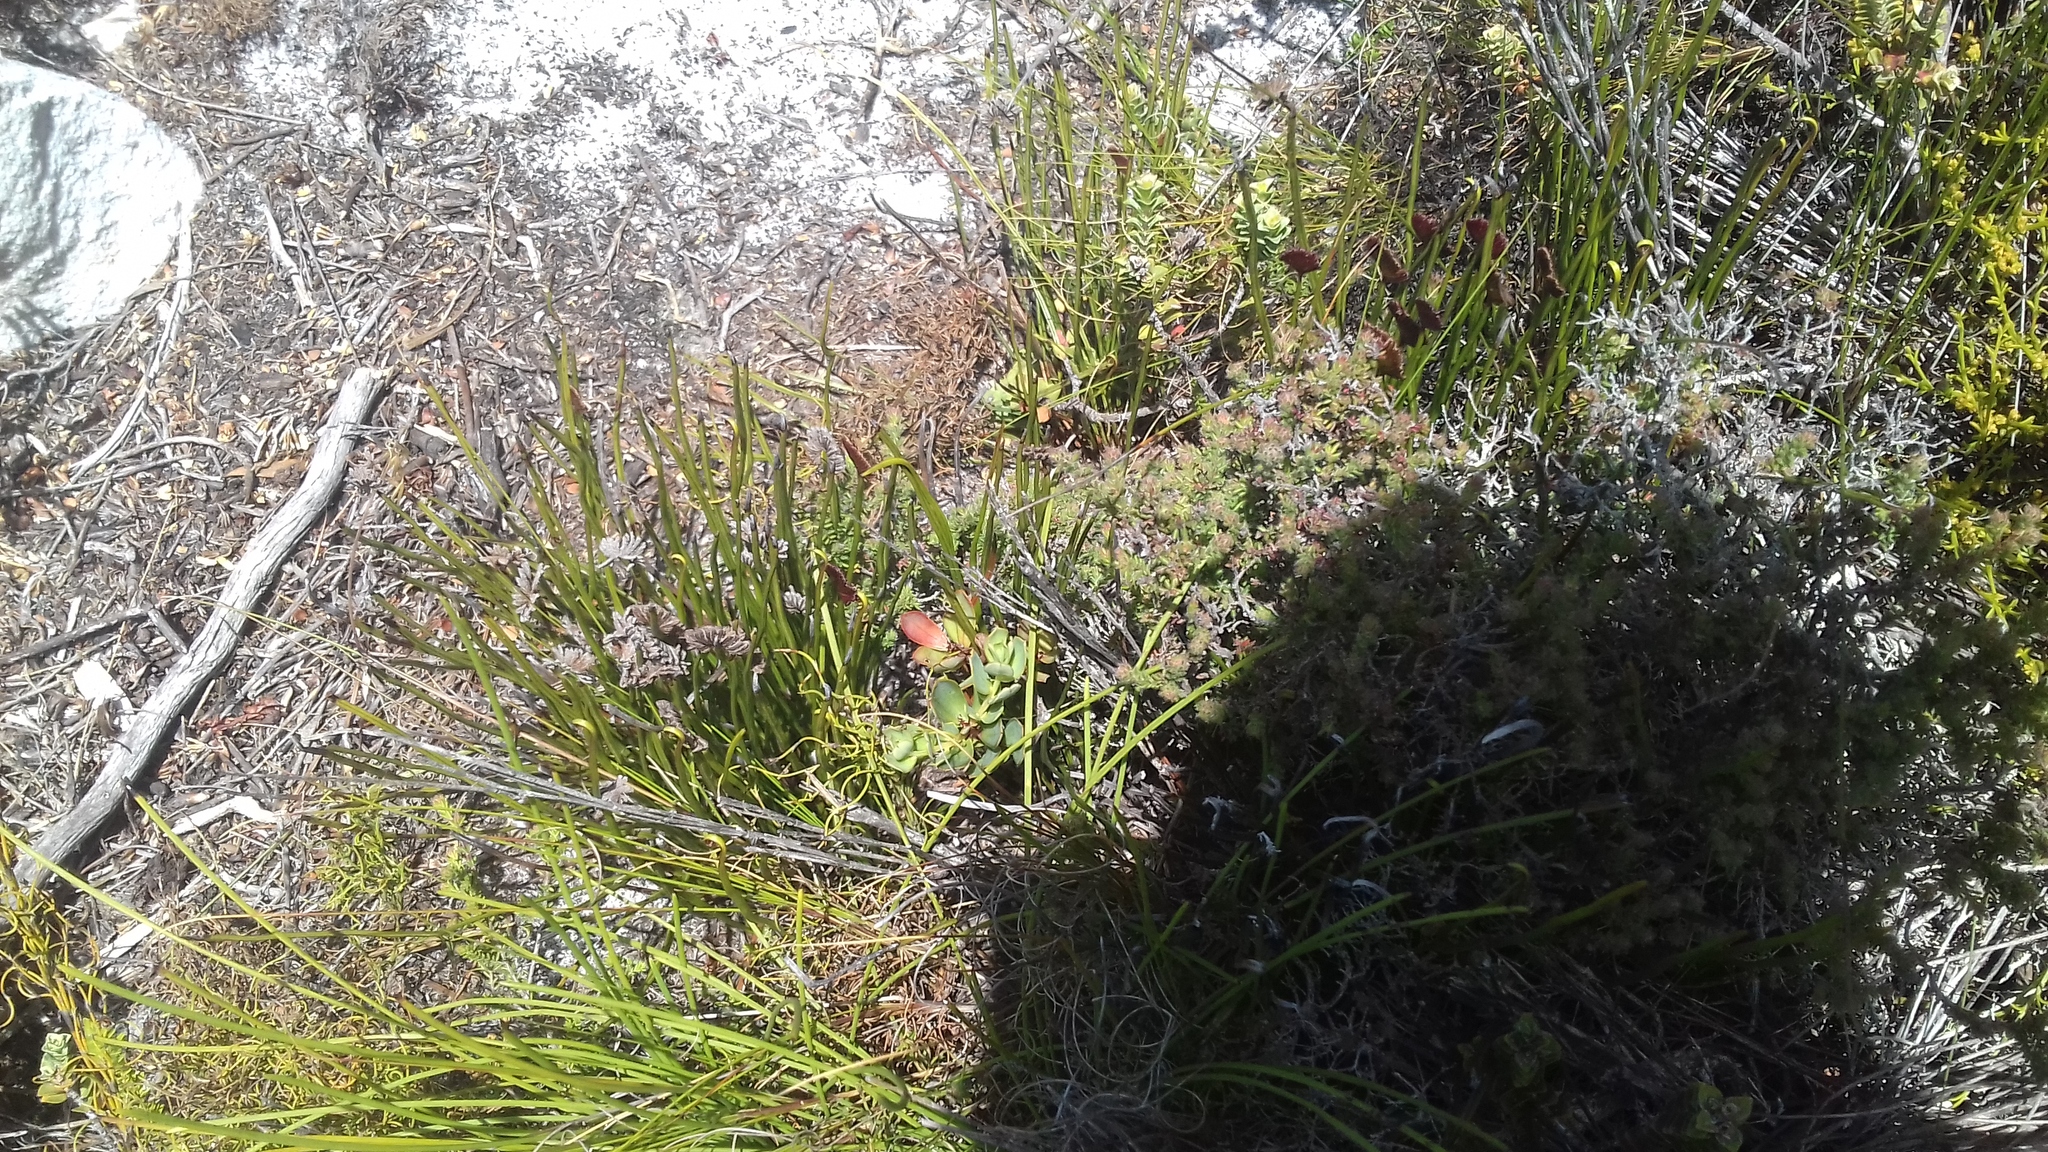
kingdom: Plantae
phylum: Tracheophyta
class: Polypodiopsida
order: Schizaeales
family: Schizaeaceae
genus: Schizaea
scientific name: Schizaea pectinata
